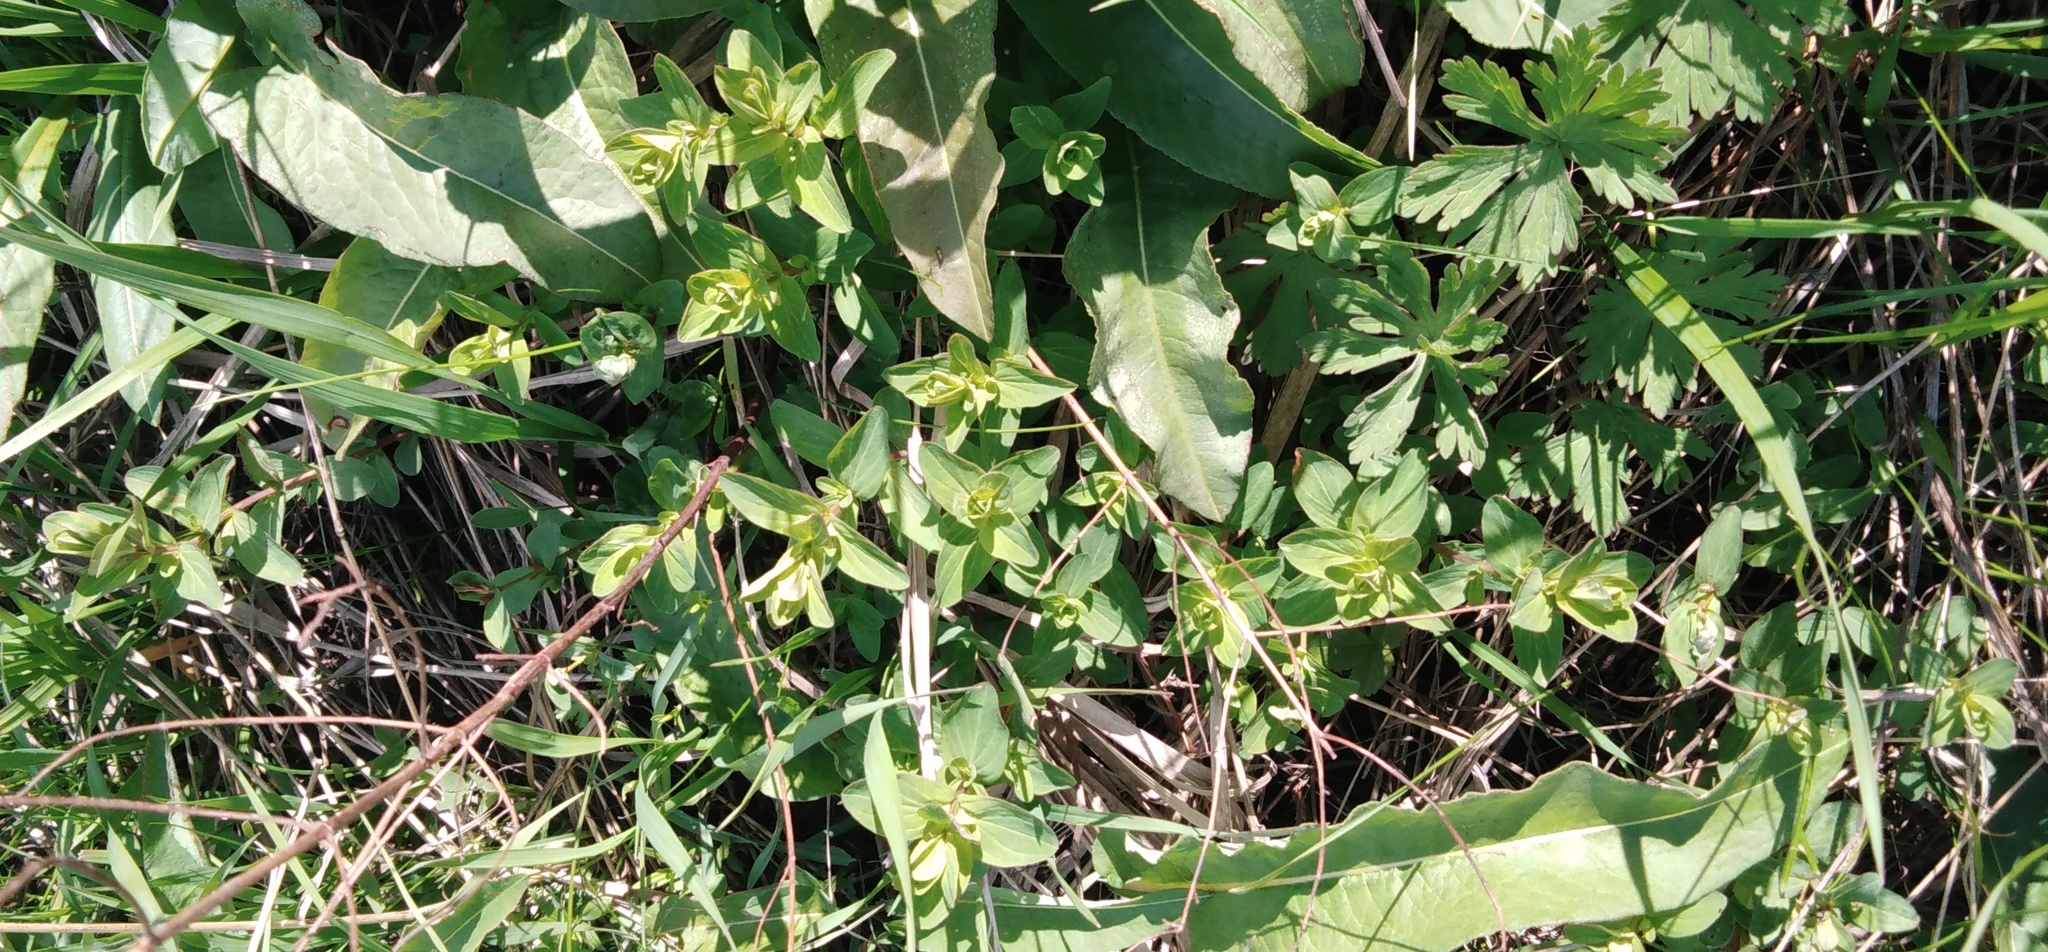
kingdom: Plantae
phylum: Tracheophyta
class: Magnoliopsida
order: Malpighiales
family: Hypericaceae
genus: Hypericum
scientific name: Hypericum perforatum
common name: Common st. johnswort
